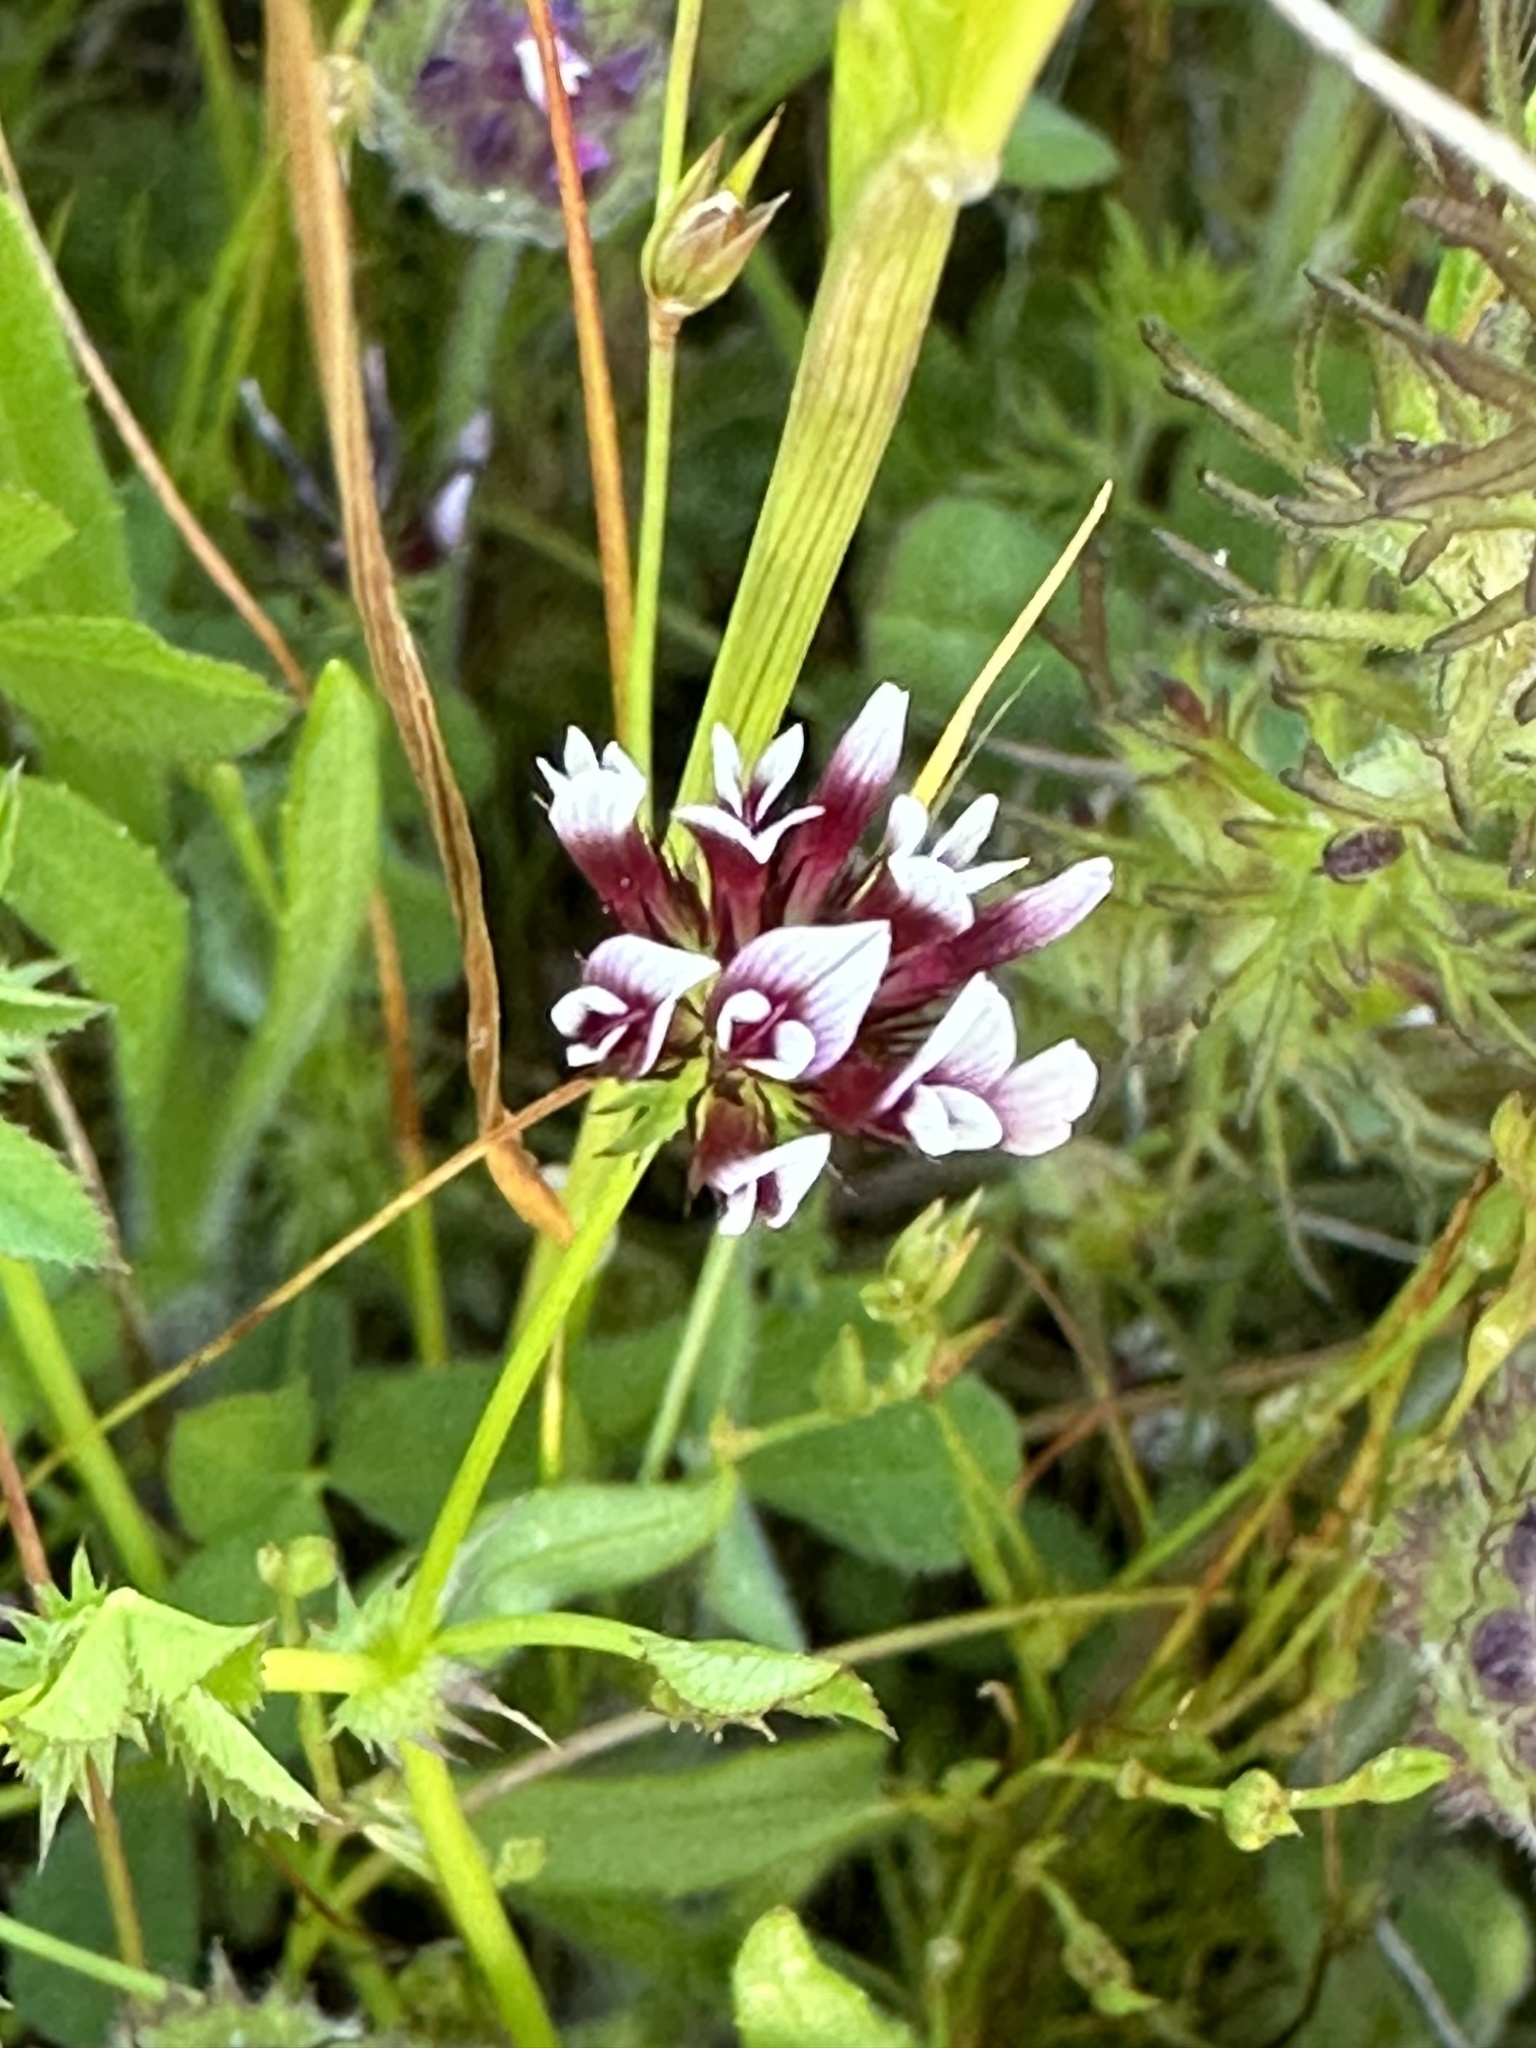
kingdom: Plantae
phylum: Tracheophyta
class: Magnoliopsida
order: Fabales
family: Fabaceae
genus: Trifolium
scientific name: Trifolium variegatum
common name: Whitetip clover
